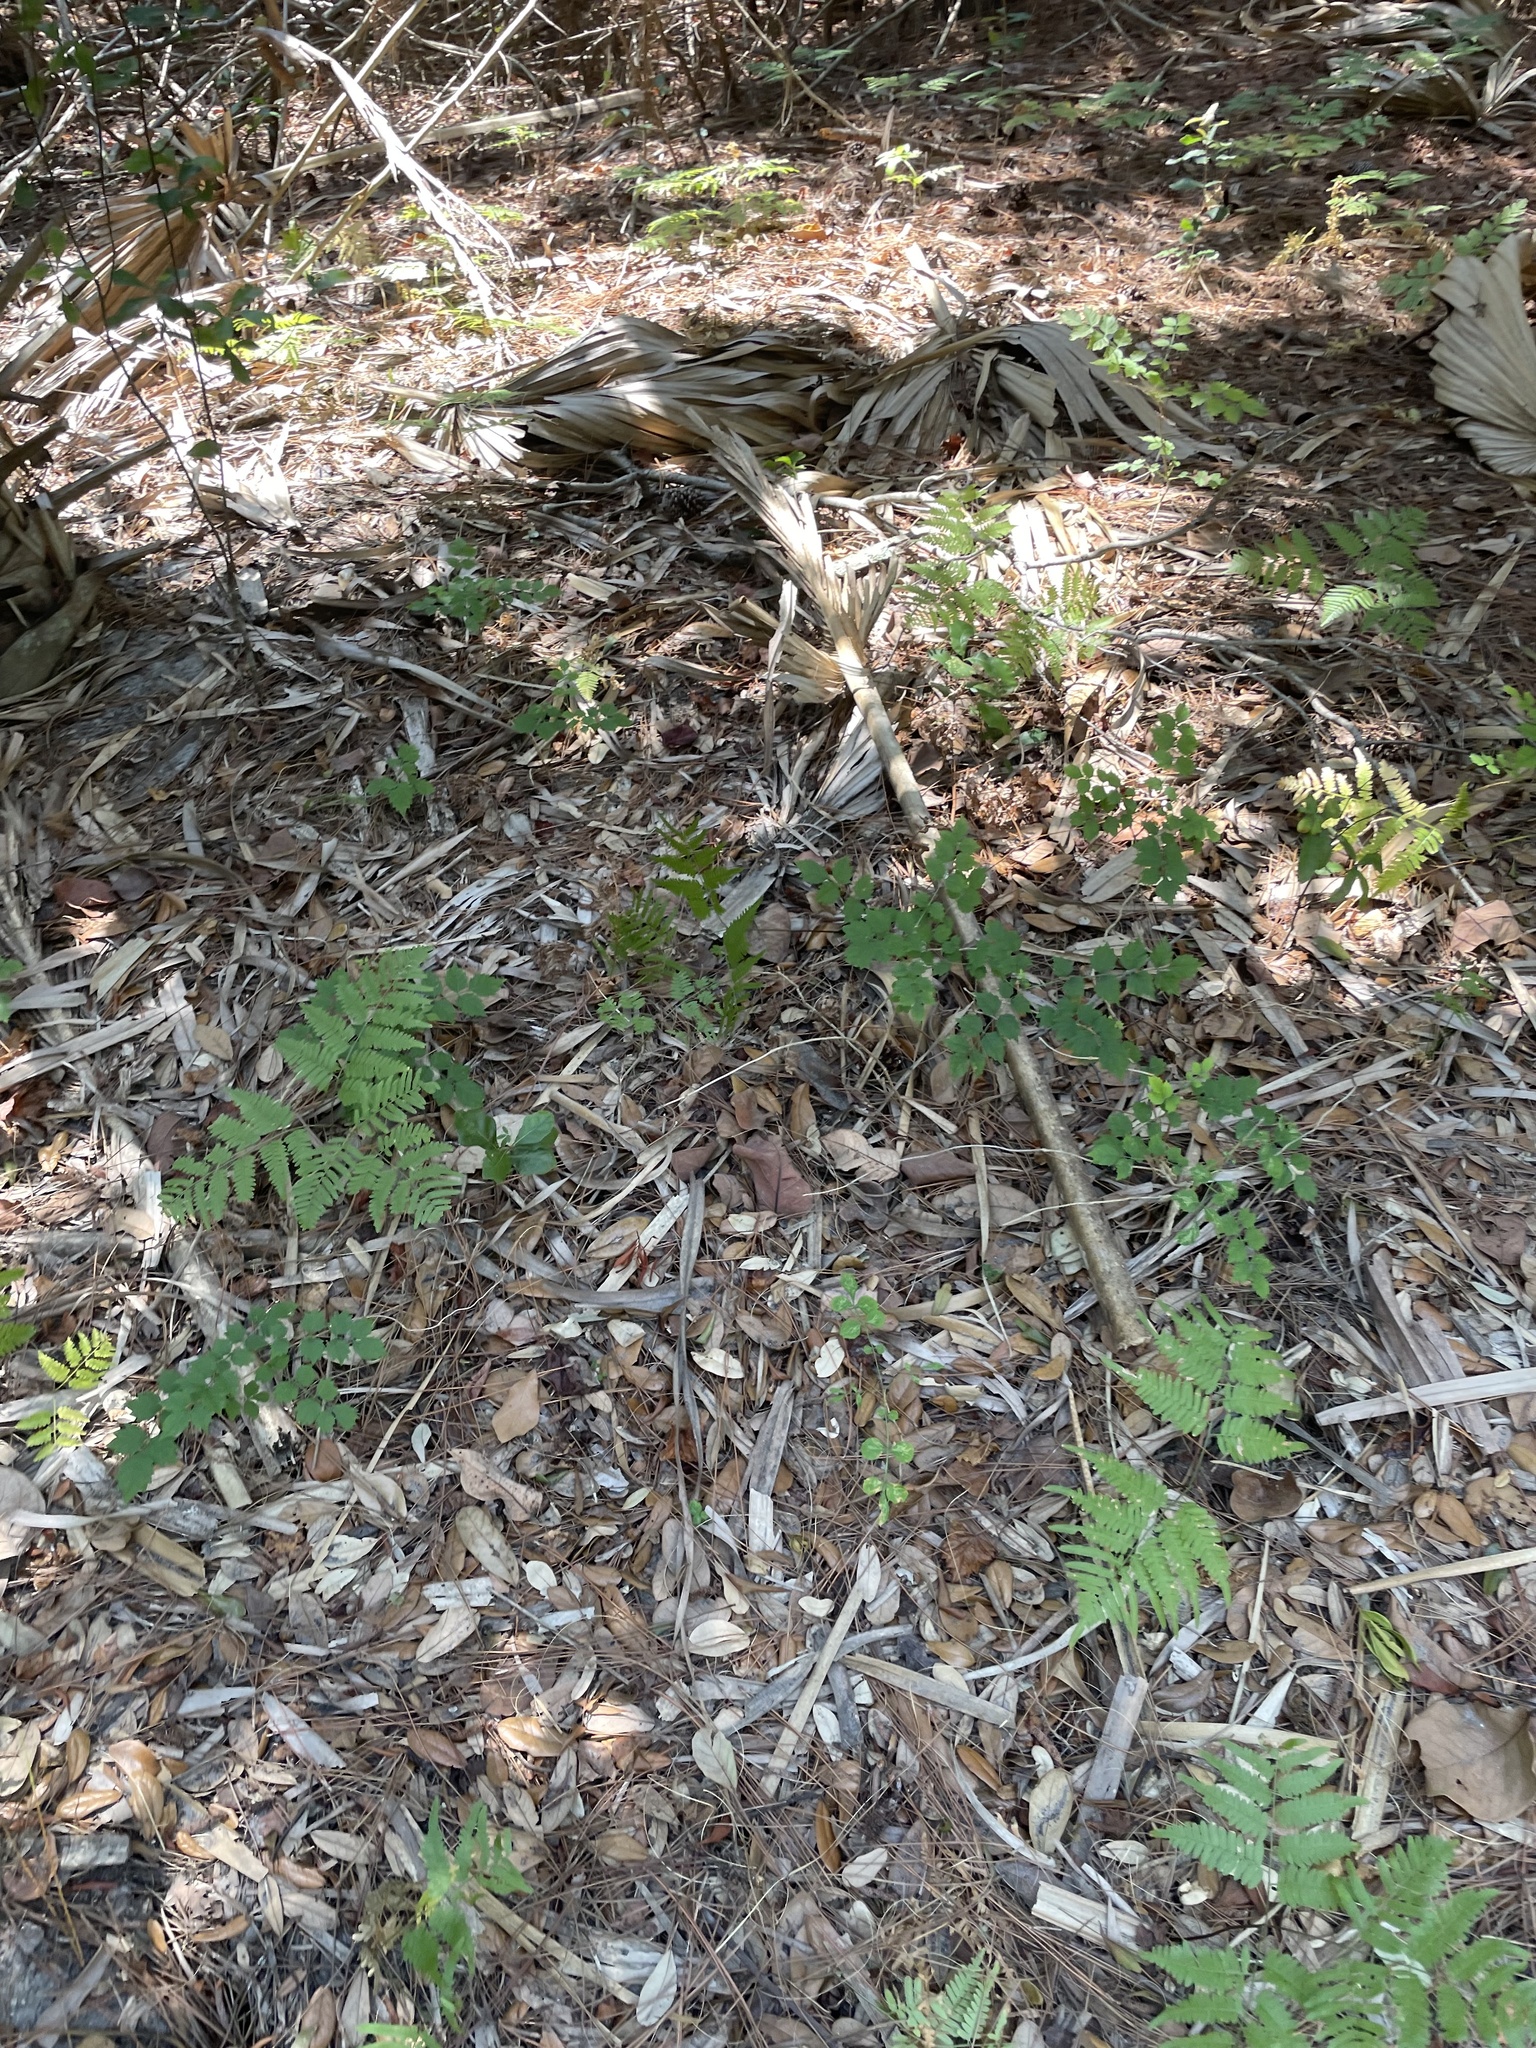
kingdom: Plantae
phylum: Tracheophyta
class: Magnoliopsida
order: Lamiales
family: Bignoniaceae
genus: Campsis
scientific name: Campsis radicans
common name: Trumpet-creeper
